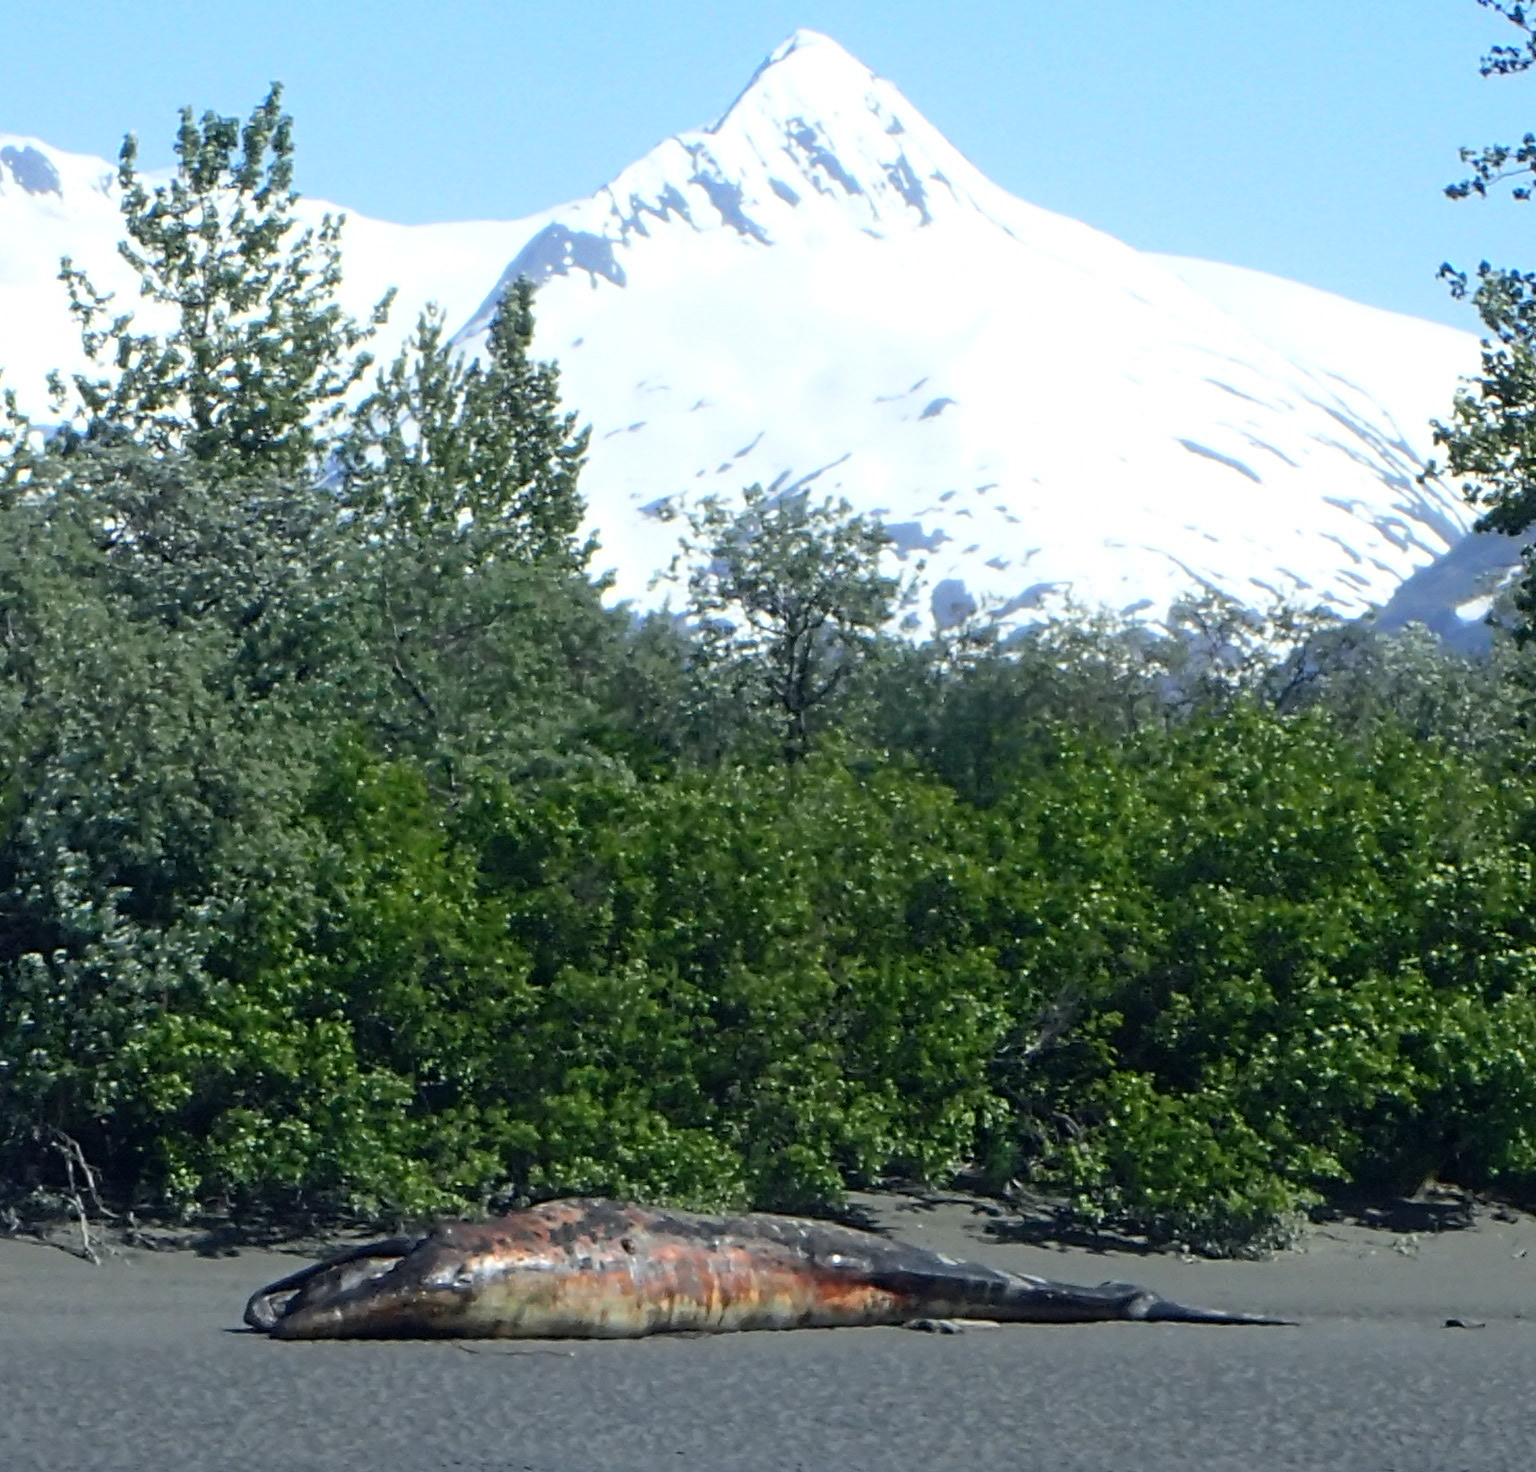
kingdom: Animalia
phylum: Chordata
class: Mammalia
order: Cetacea
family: Eschrichtiidae
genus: Eschrichtius
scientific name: Eschrichtius robustus
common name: Gray whale
